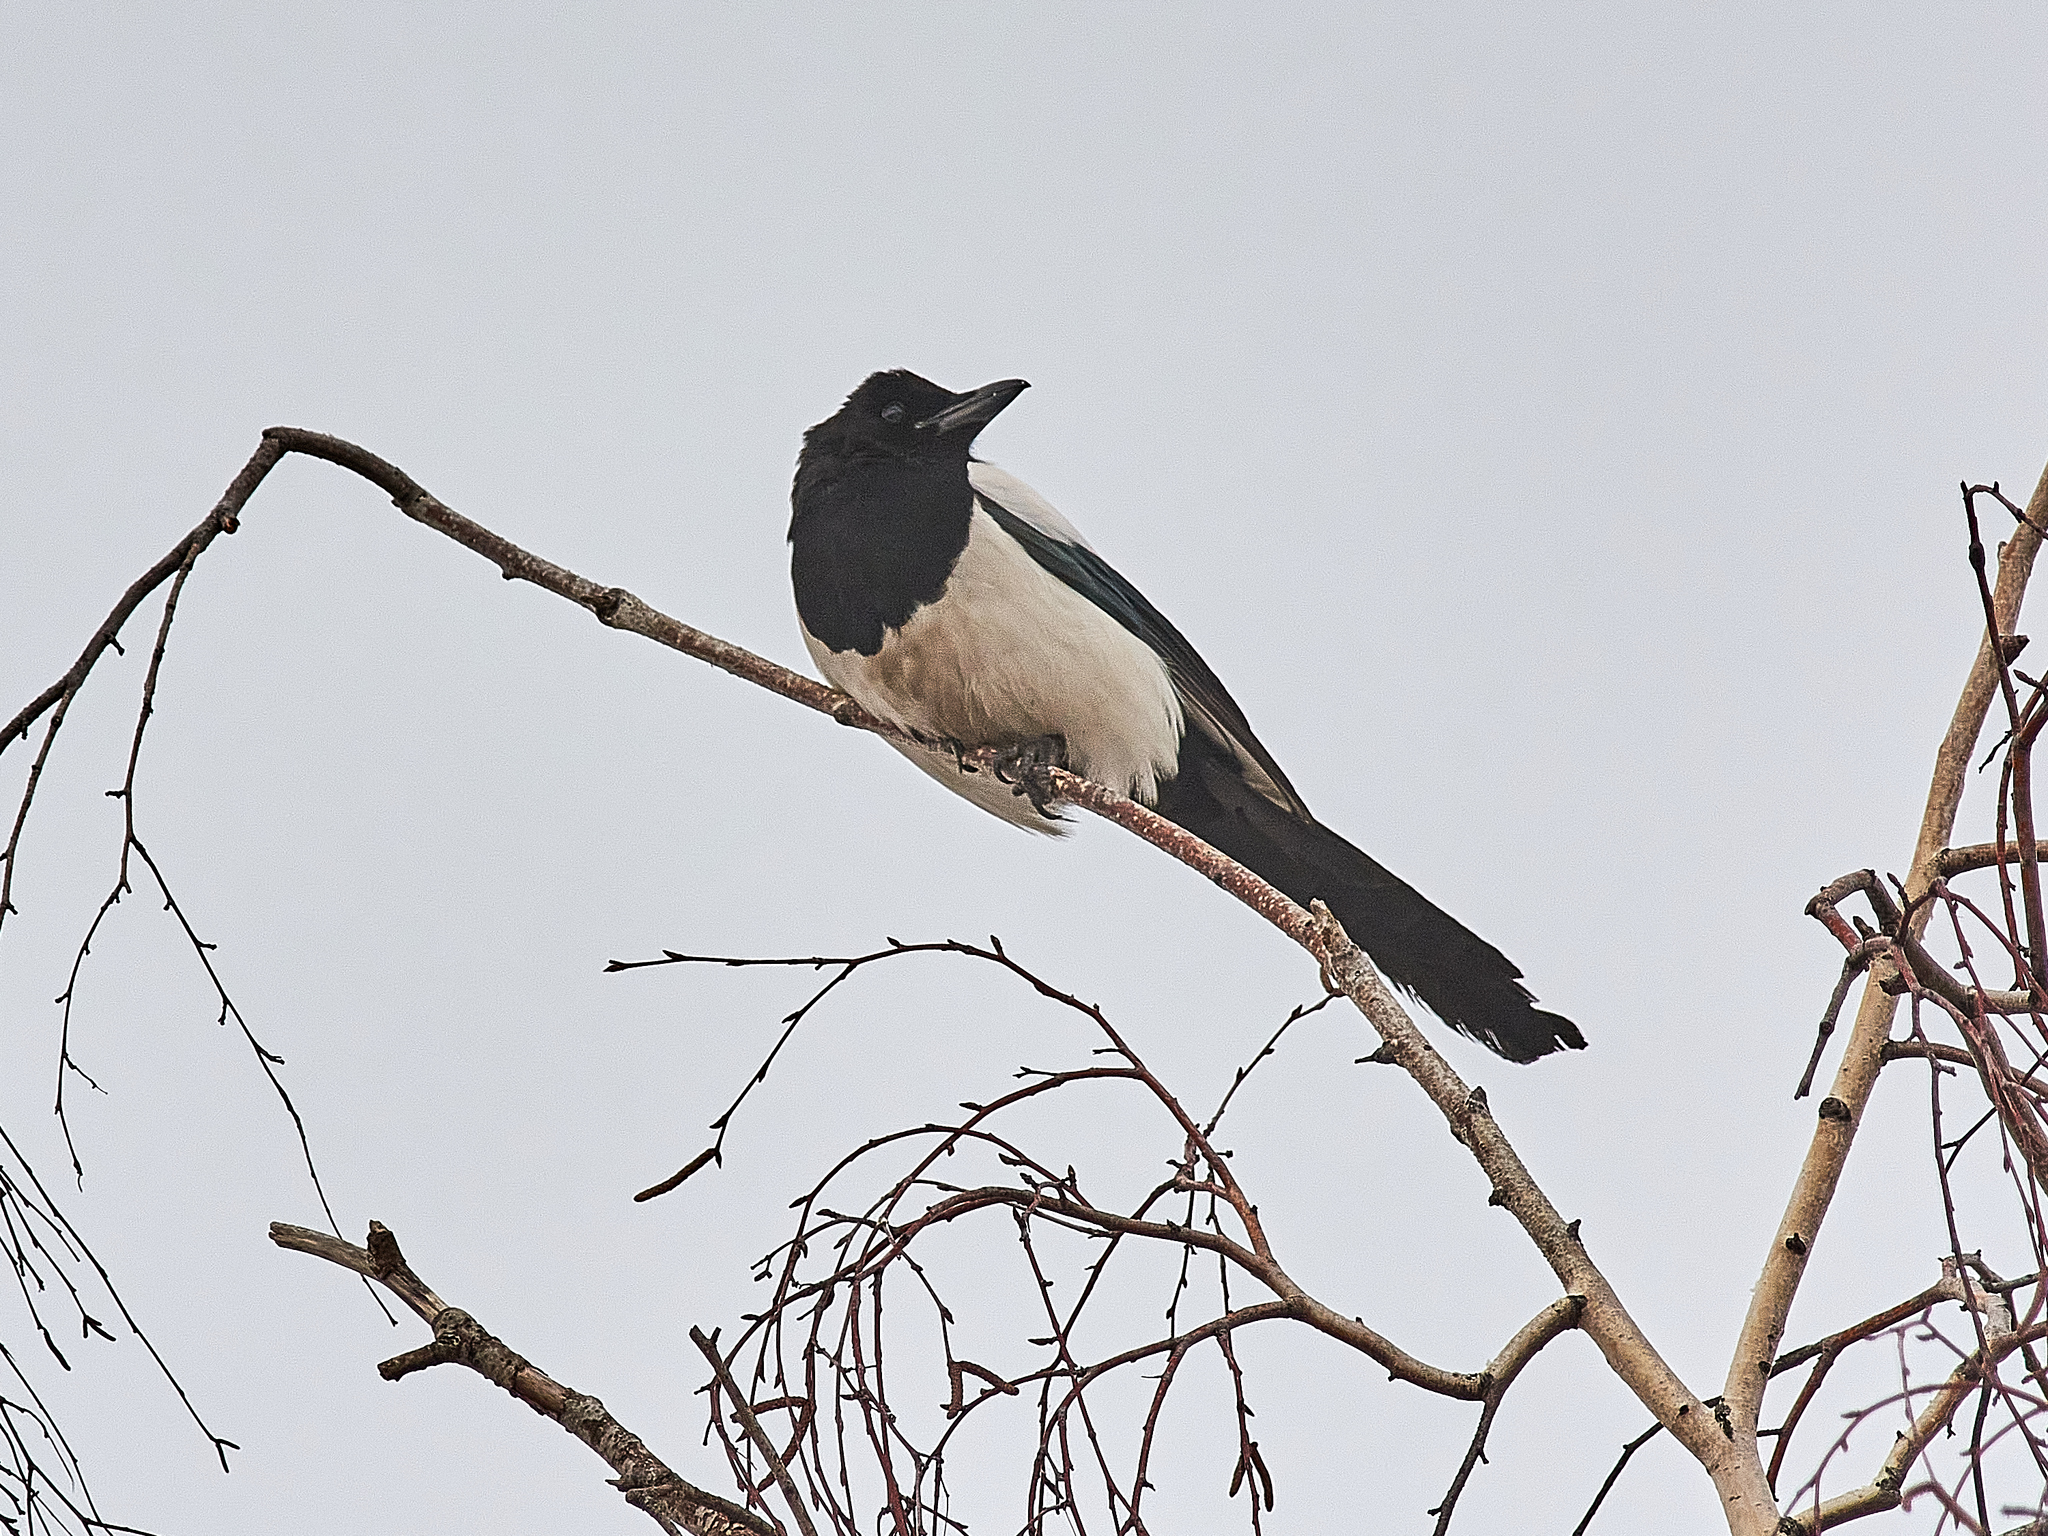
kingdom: Animalia
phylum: Chordata
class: Aves
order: Passeriformes
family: Corvidae
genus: Pica
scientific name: Pica pica
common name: Eurasian magpie
